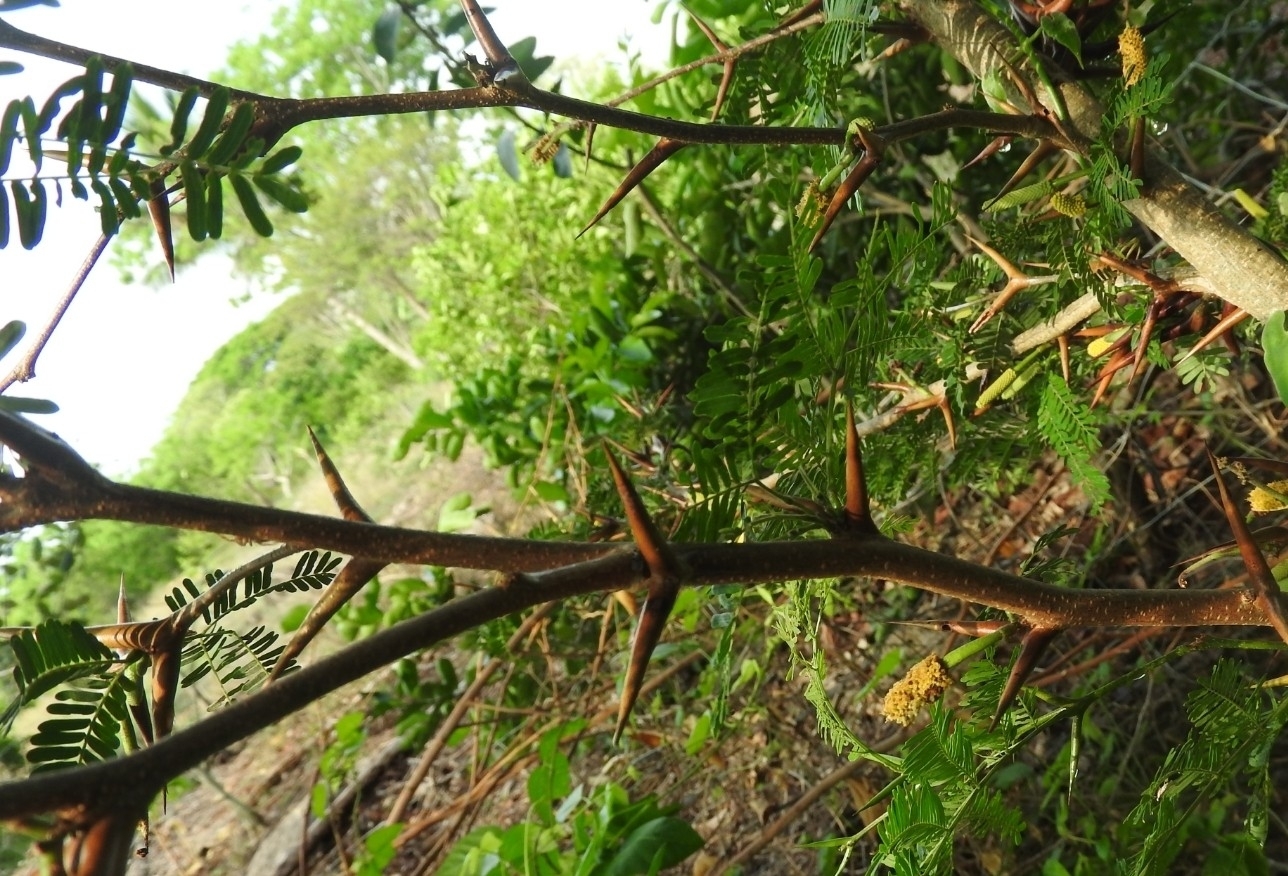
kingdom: Plantae
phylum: Tracheophyta
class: Magnoliopsida
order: Fabales
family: Fabaceae
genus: Vachellia
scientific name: Vachellia cornigera
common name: Bullhorn wattle
